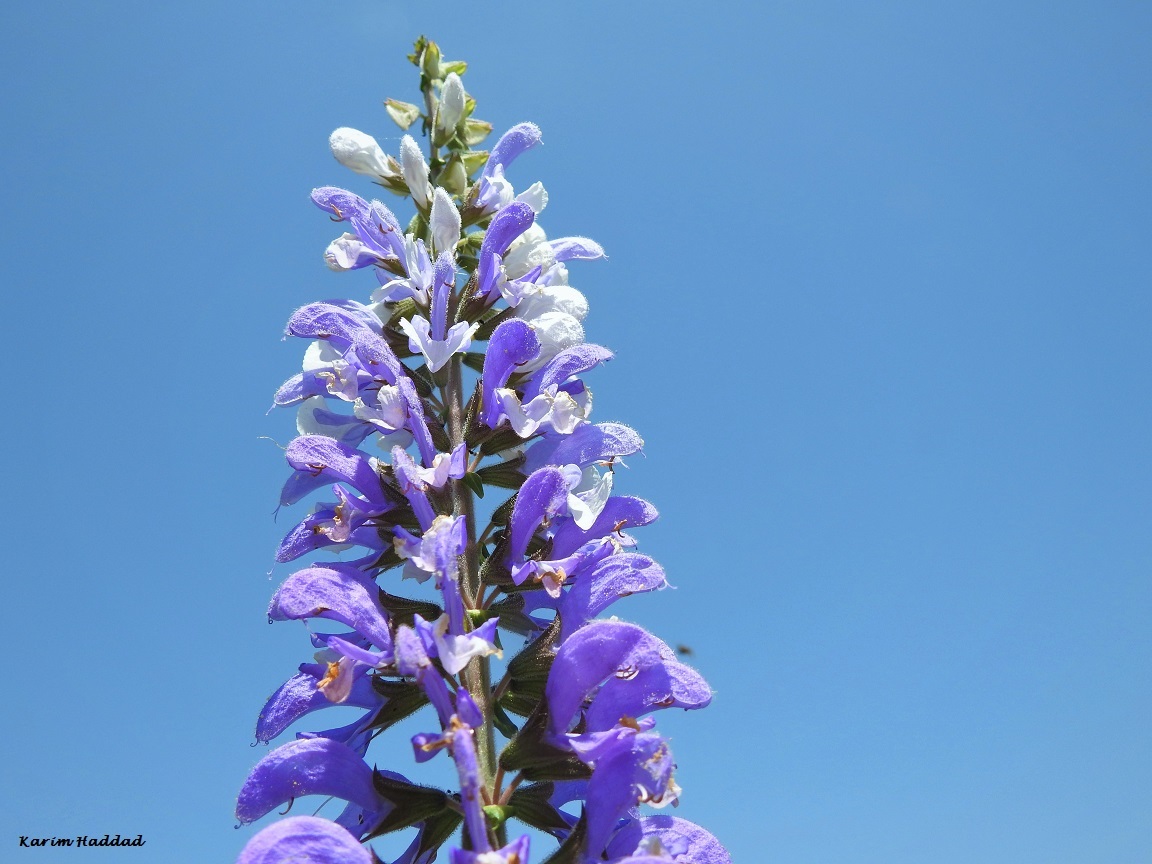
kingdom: Plantae
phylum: Tracheophyta
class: Magnoliopsida
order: Lamiales
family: Lamiaceae
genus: Salvia
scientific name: Salvia barrelieri
